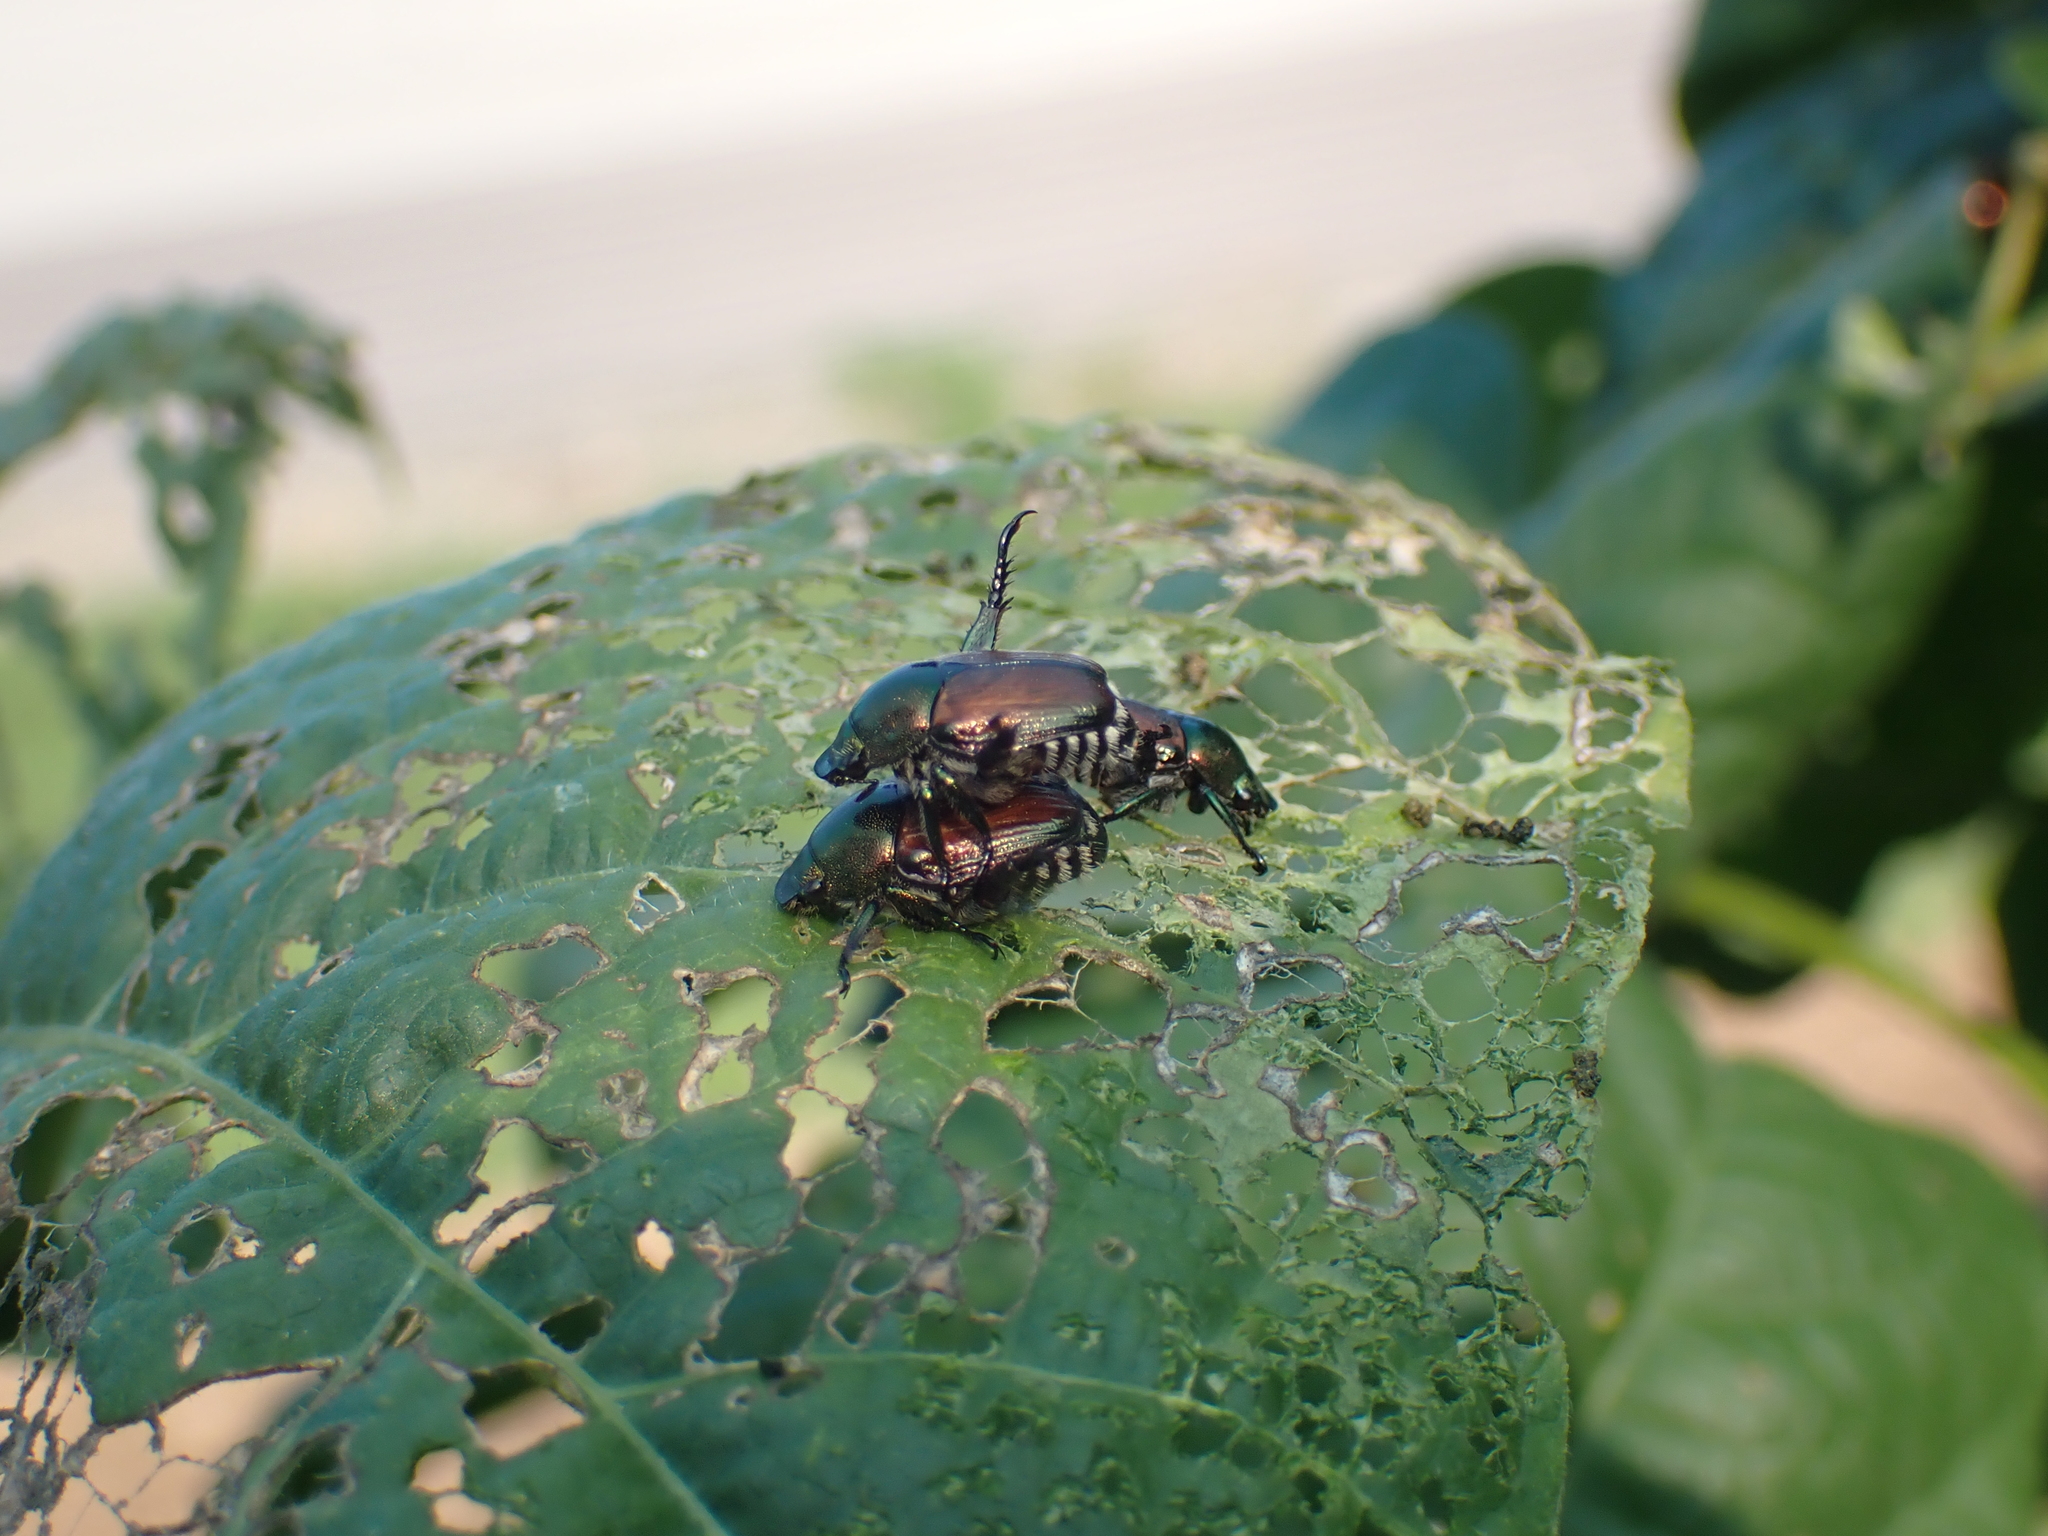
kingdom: Animalia
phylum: Arthropoda
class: Insecta
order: Coleoptera
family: Scarabaeidae
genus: Popillia
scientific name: Popillia japonica
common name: Japanese beetle
